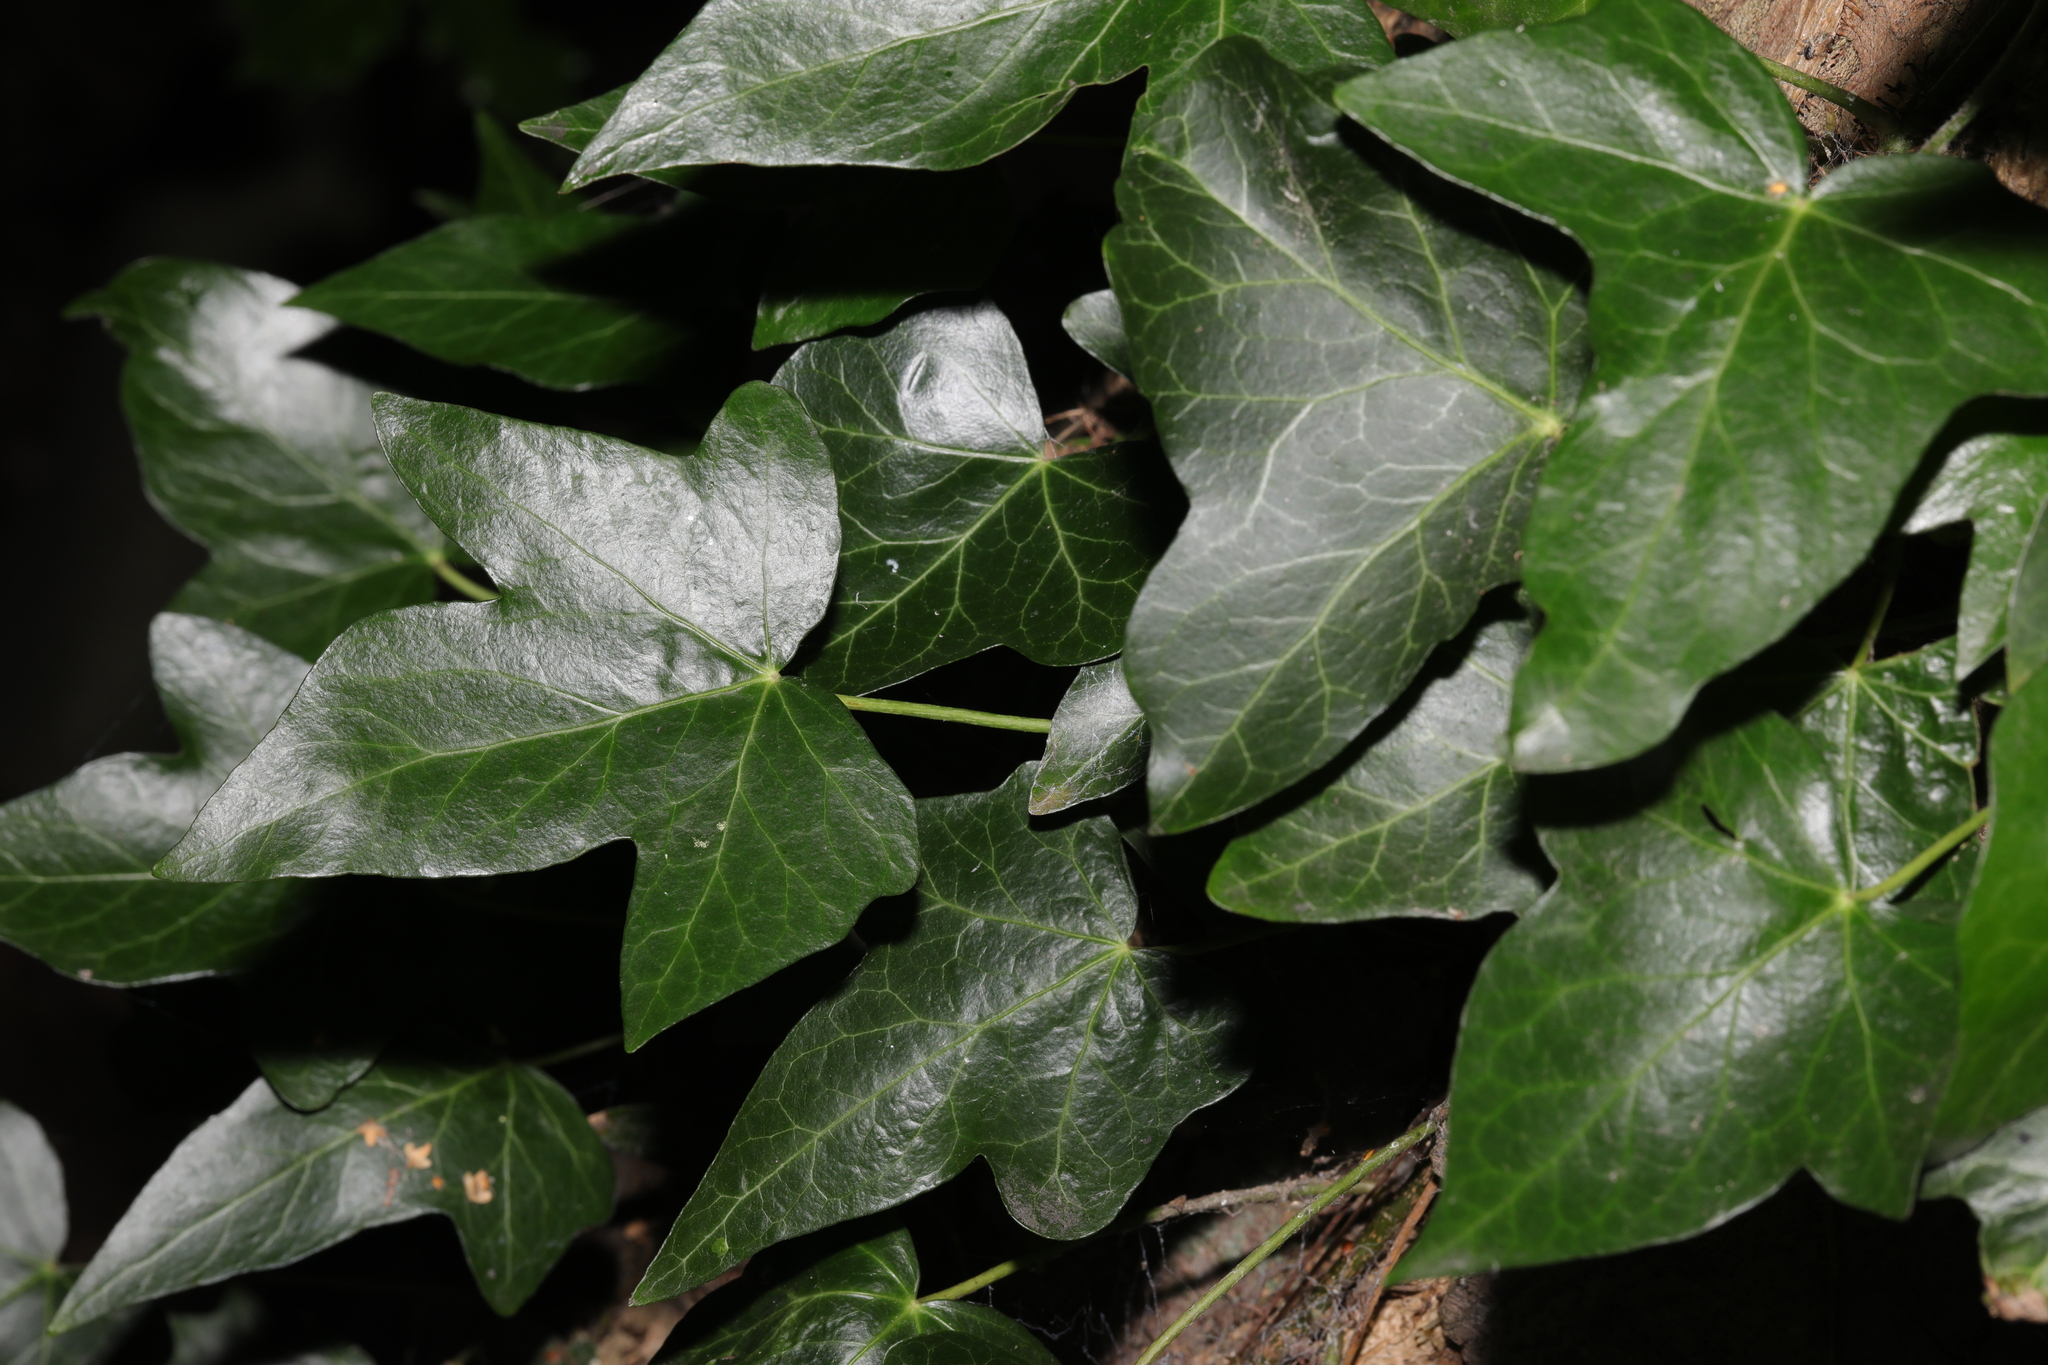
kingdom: Plantae
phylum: Tracheophyta
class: Magnoliopsida
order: Apiales
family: Araliaceae
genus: Hedera
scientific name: Hedera helix
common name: Ivy
